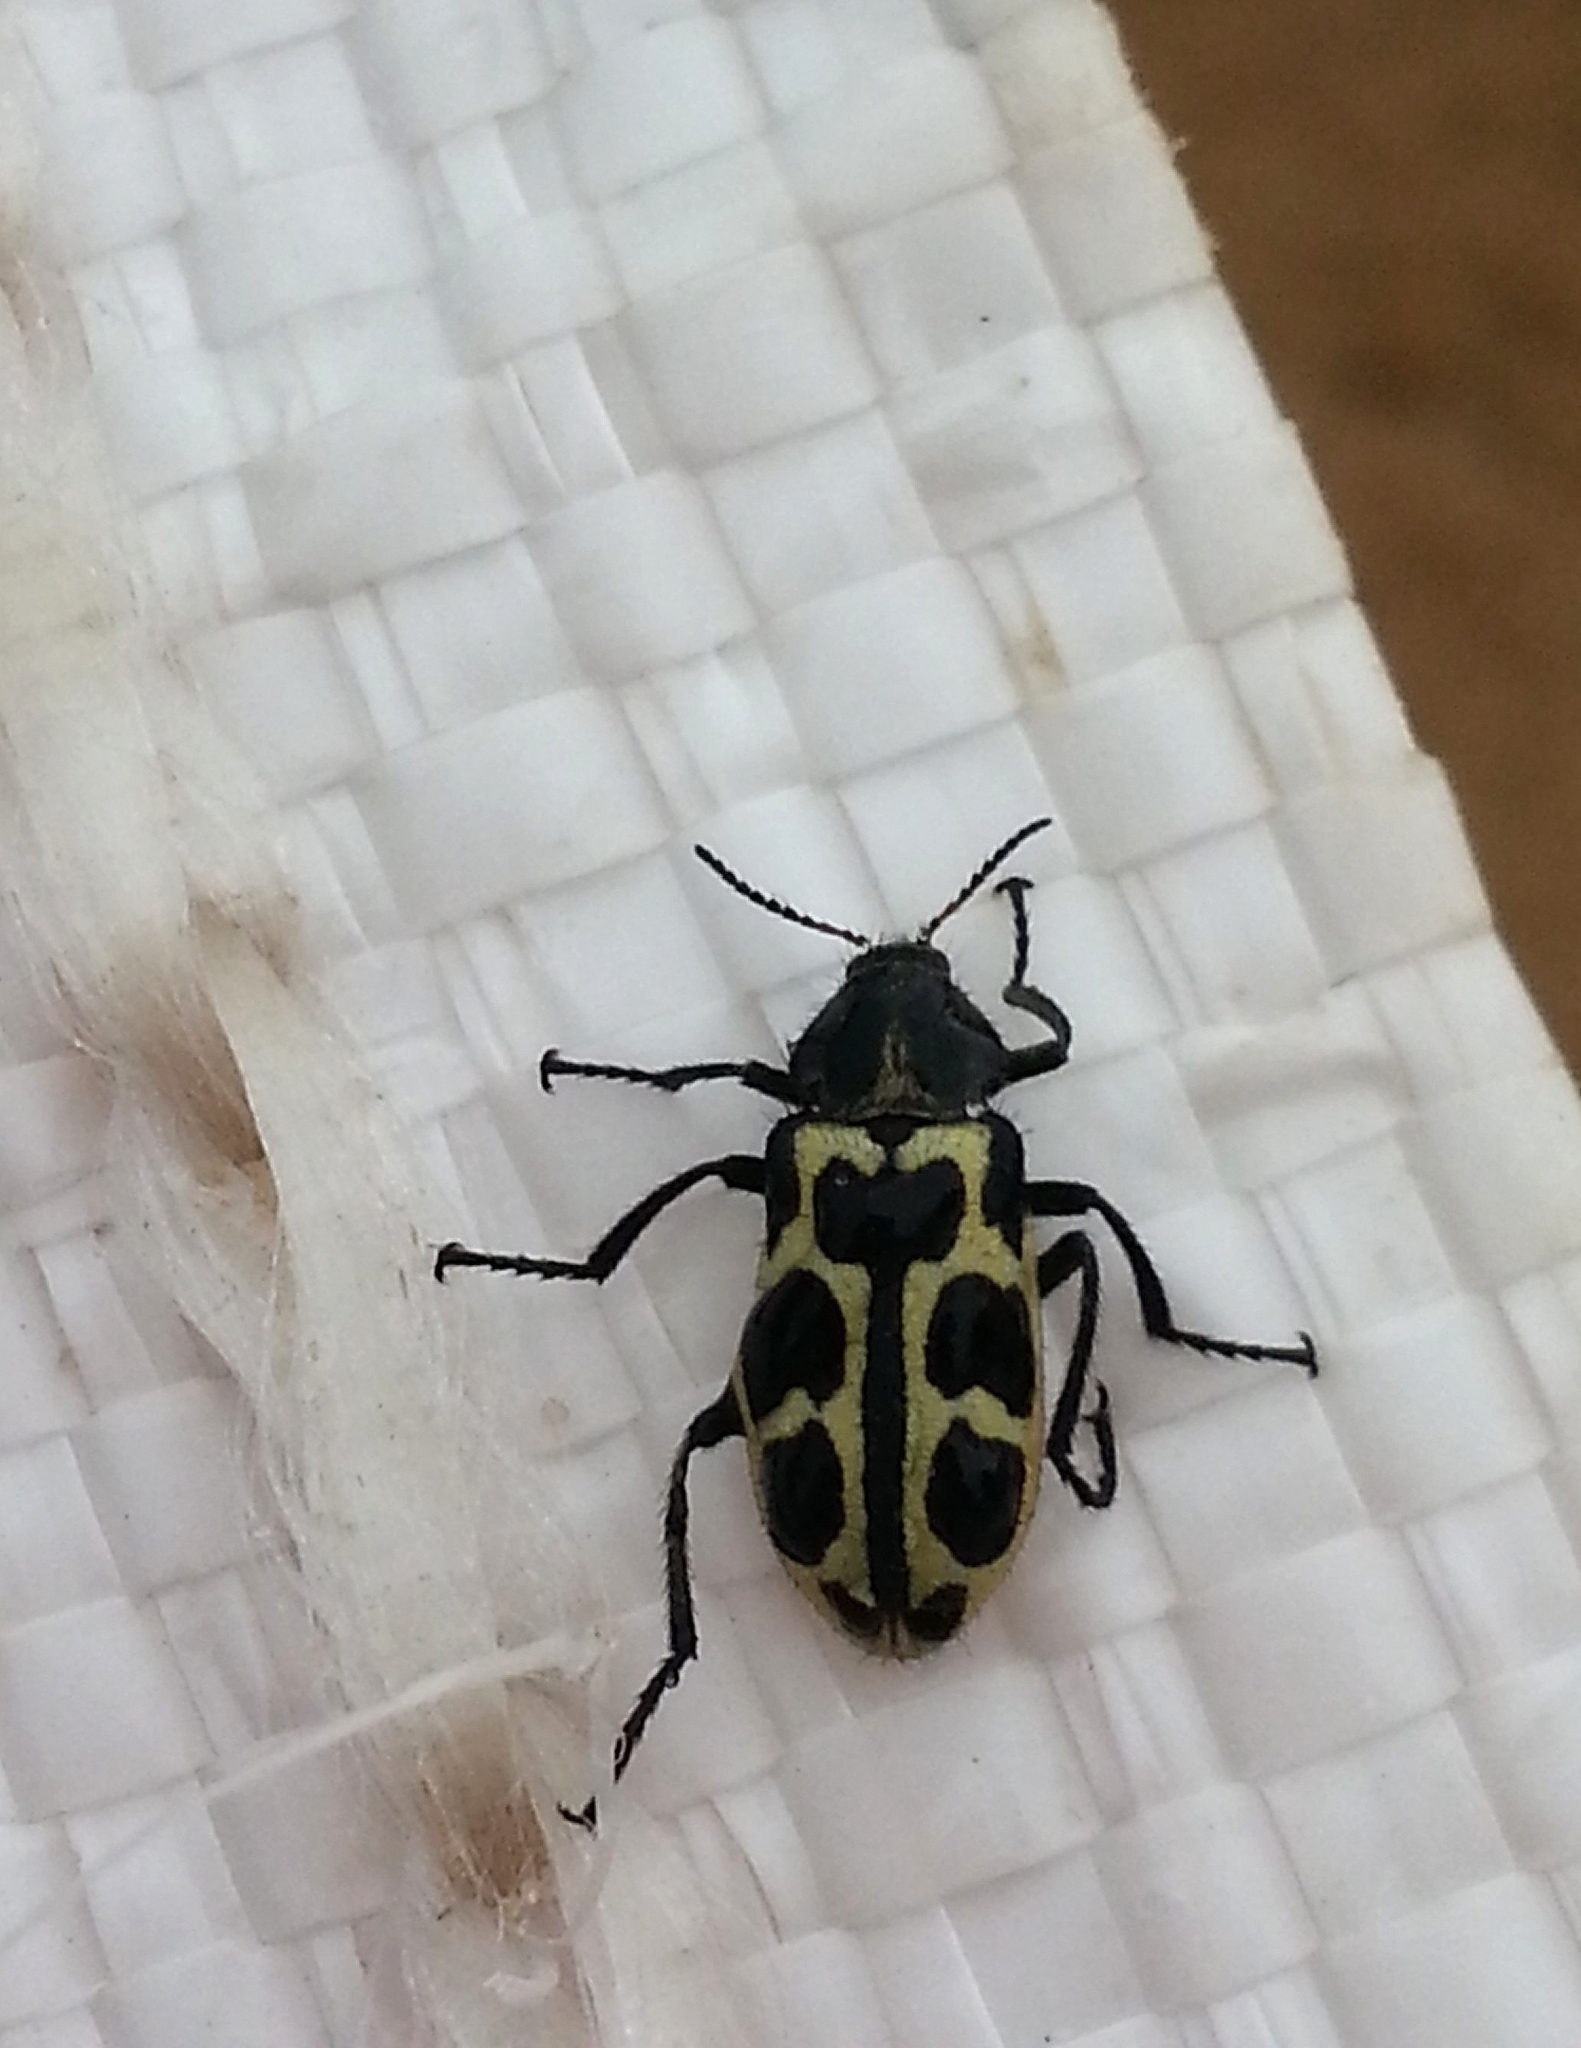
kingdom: Animalia
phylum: Arthropoda
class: Insecta
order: Coleoptera
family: Melyridae
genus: Astylus
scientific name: Astylus atromaculatus
